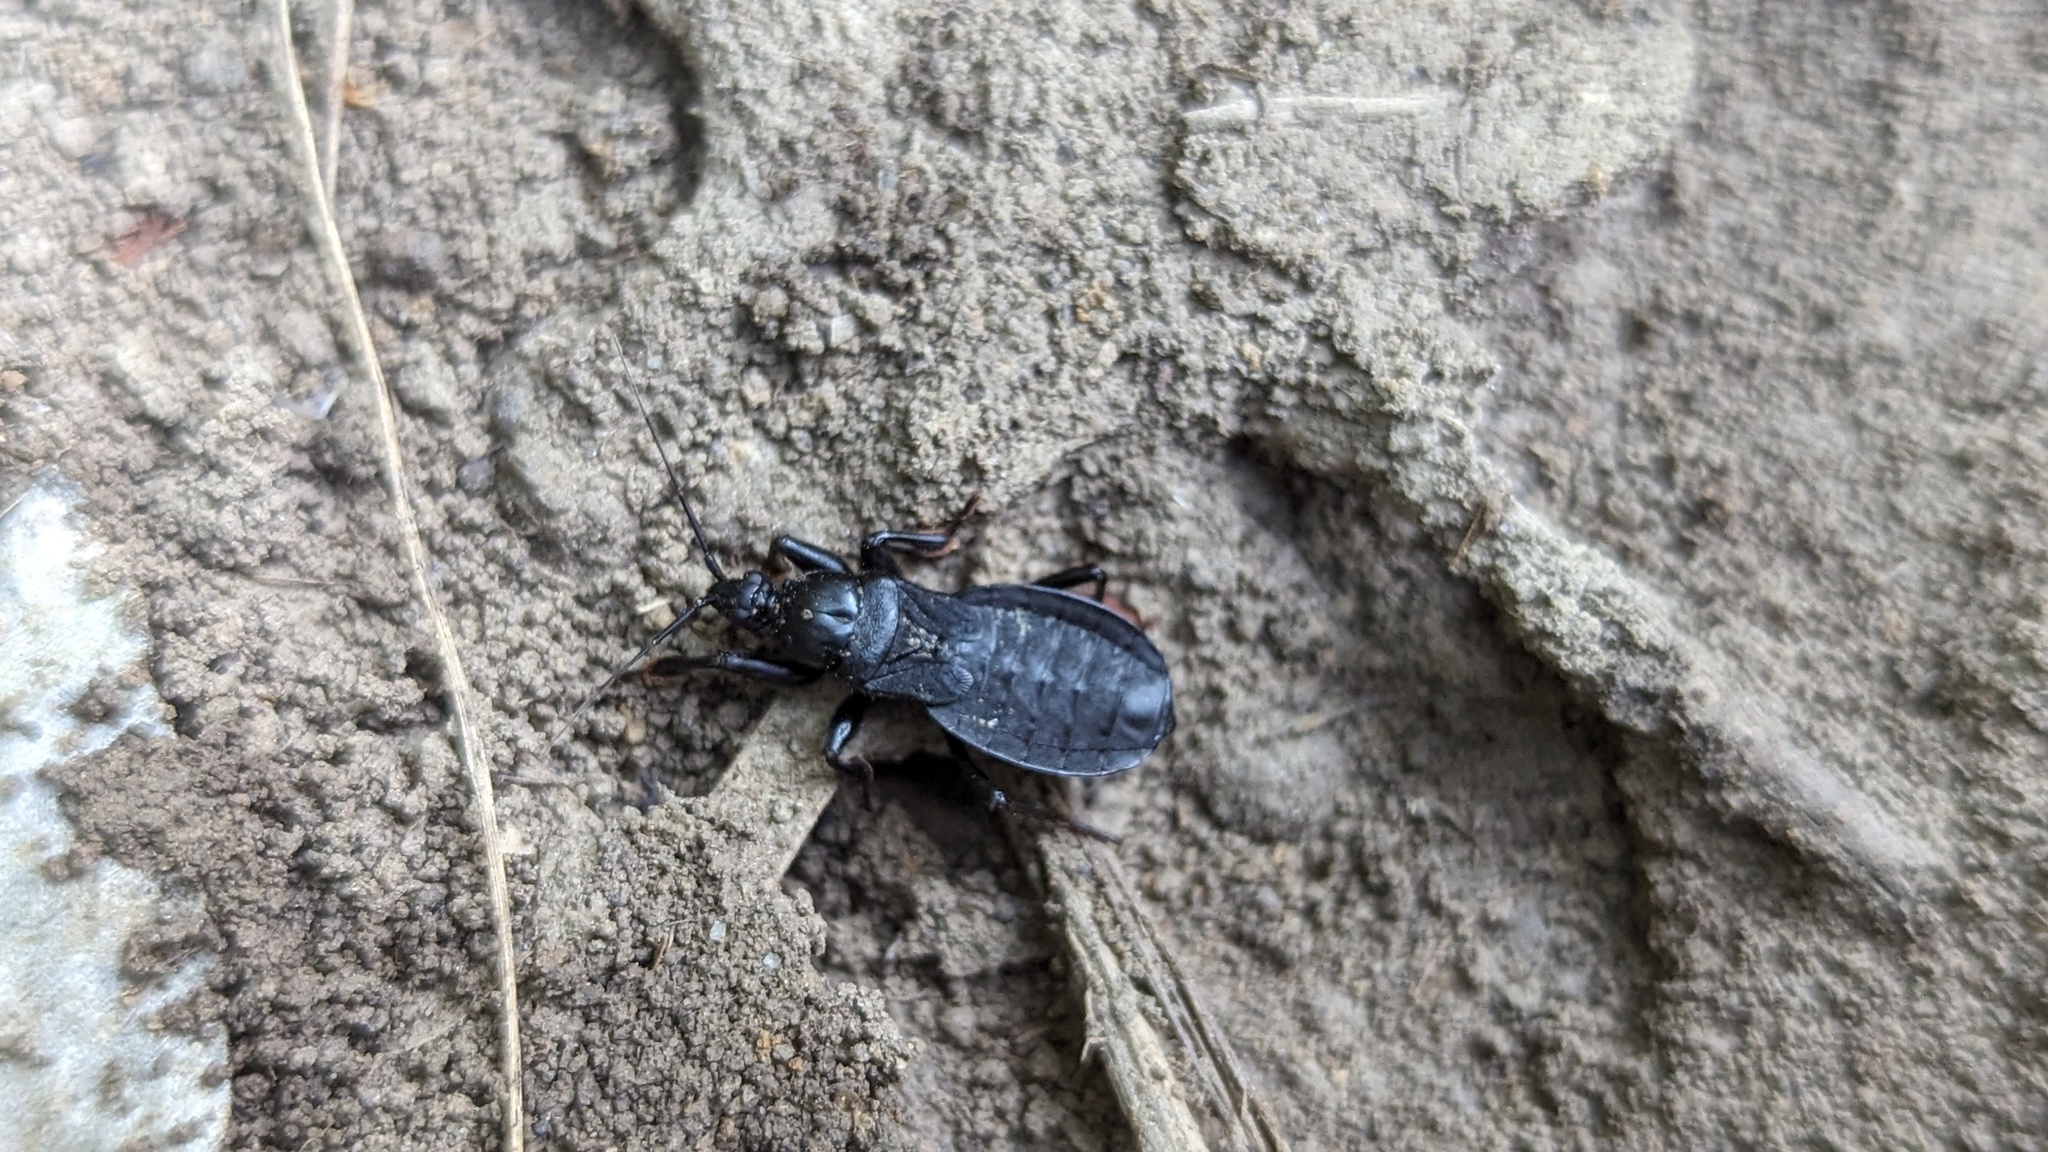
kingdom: Animalia
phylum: Arthropoda
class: Insecta
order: Hemiptera
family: Reduviidae
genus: Melanolestes
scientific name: Melanolestes picipes
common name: Assassin bug
